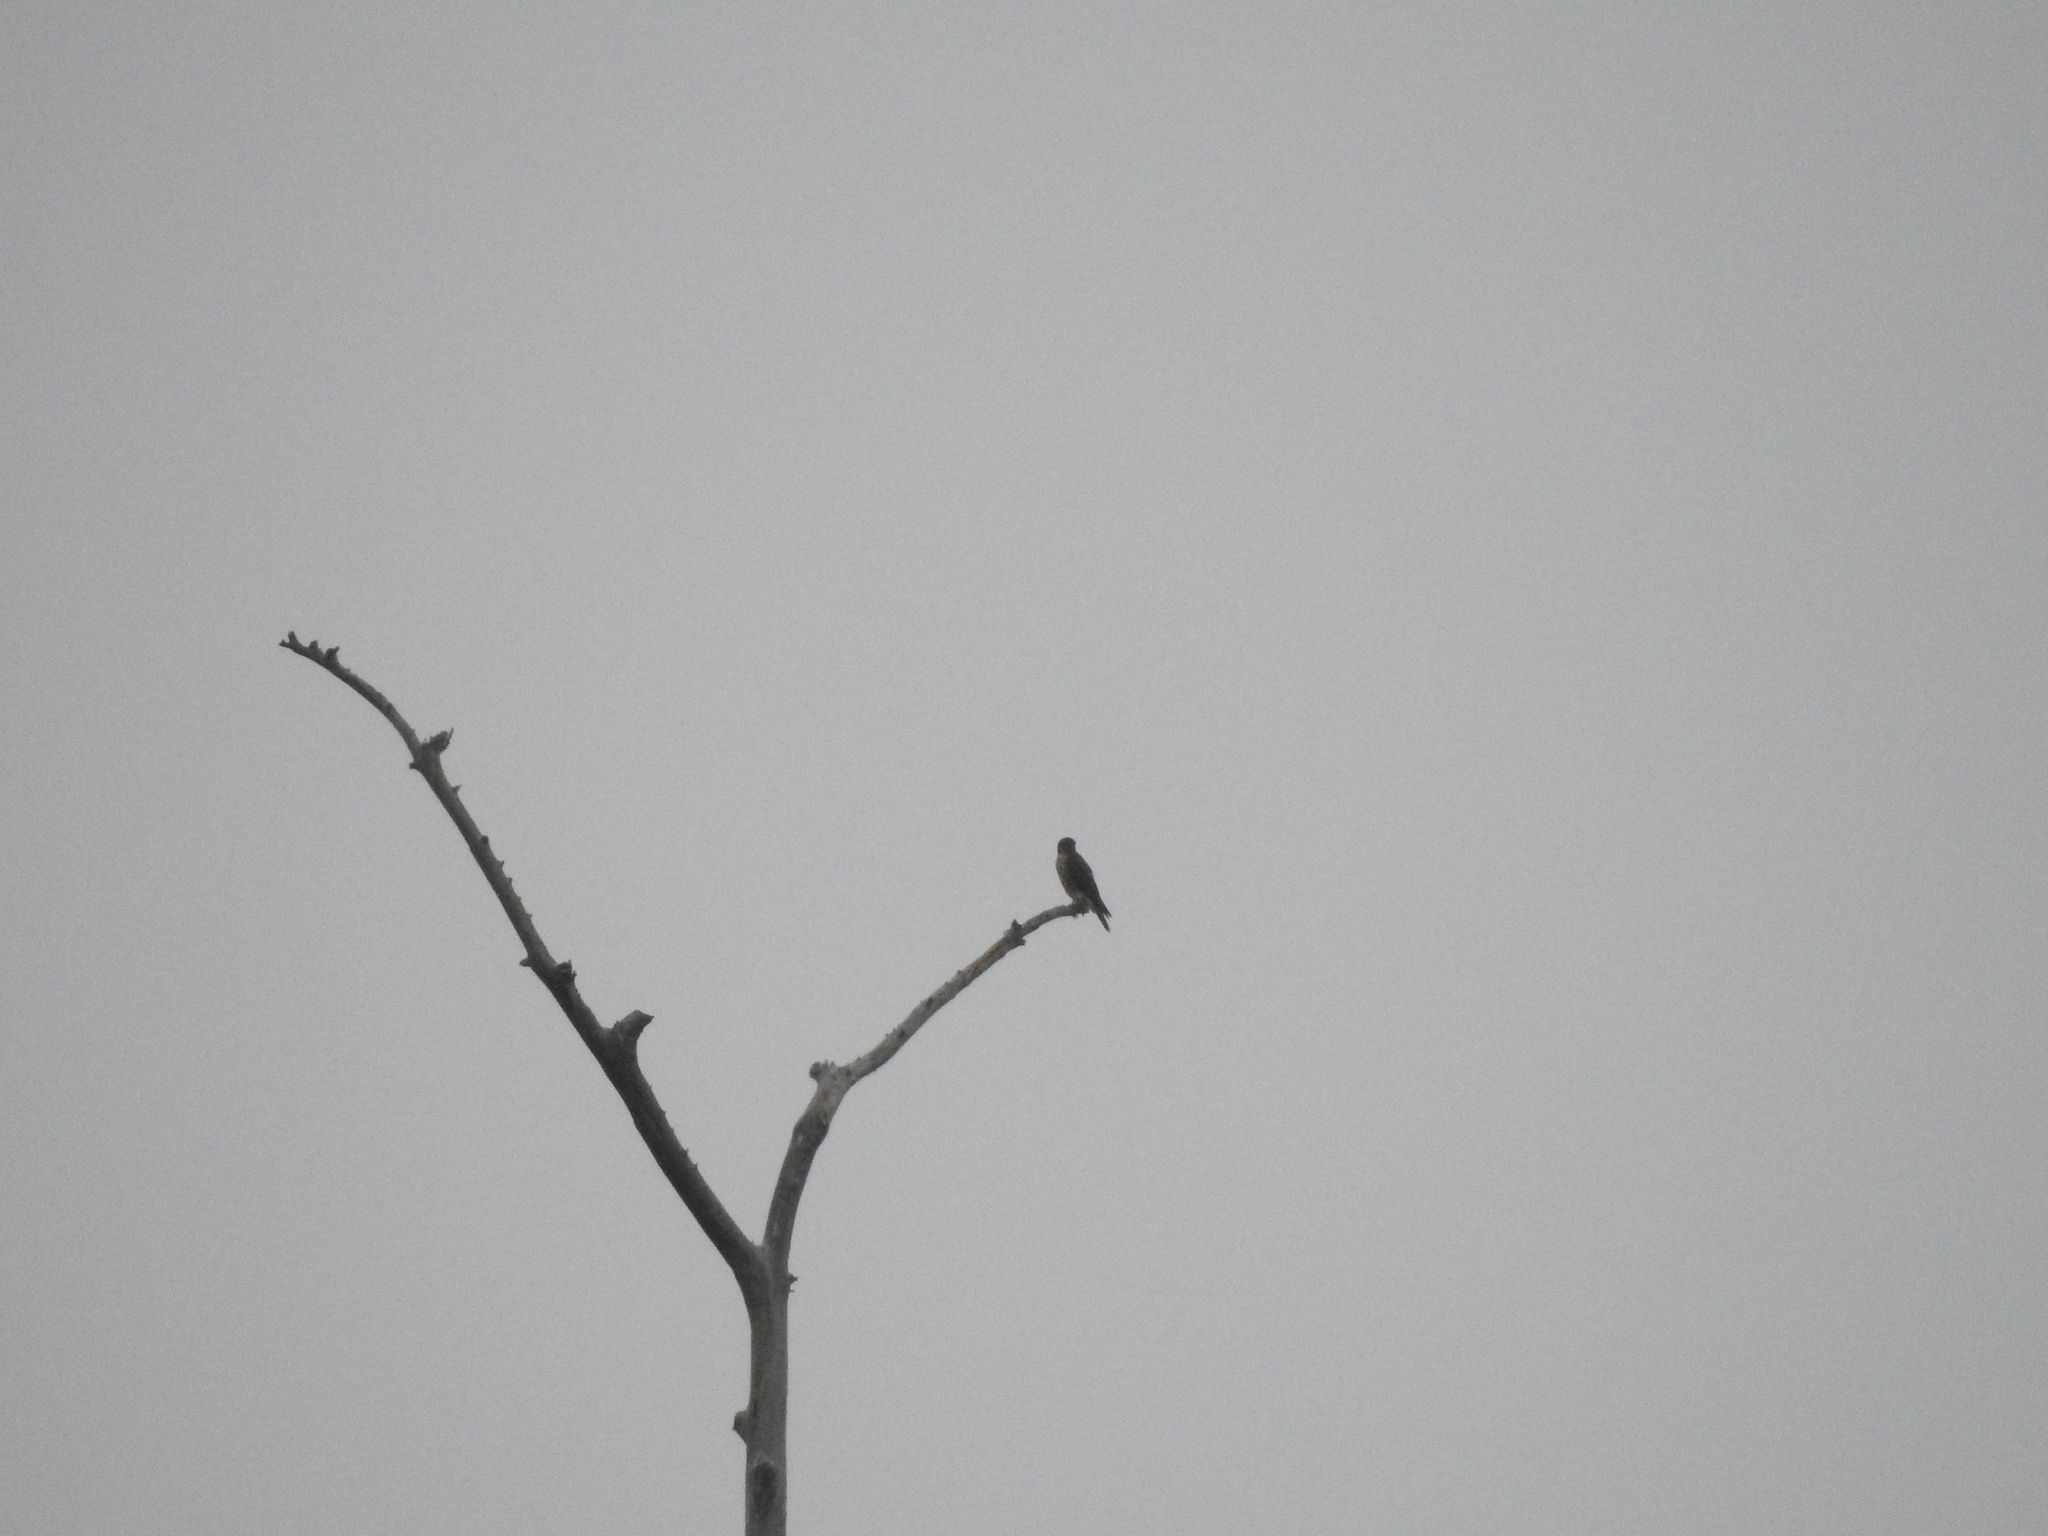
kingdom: Animalia
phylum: Chordata
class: Aves
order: Falconiformes
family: Falconidae
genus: Falco
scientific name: Falco columbarius
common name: Merlin
